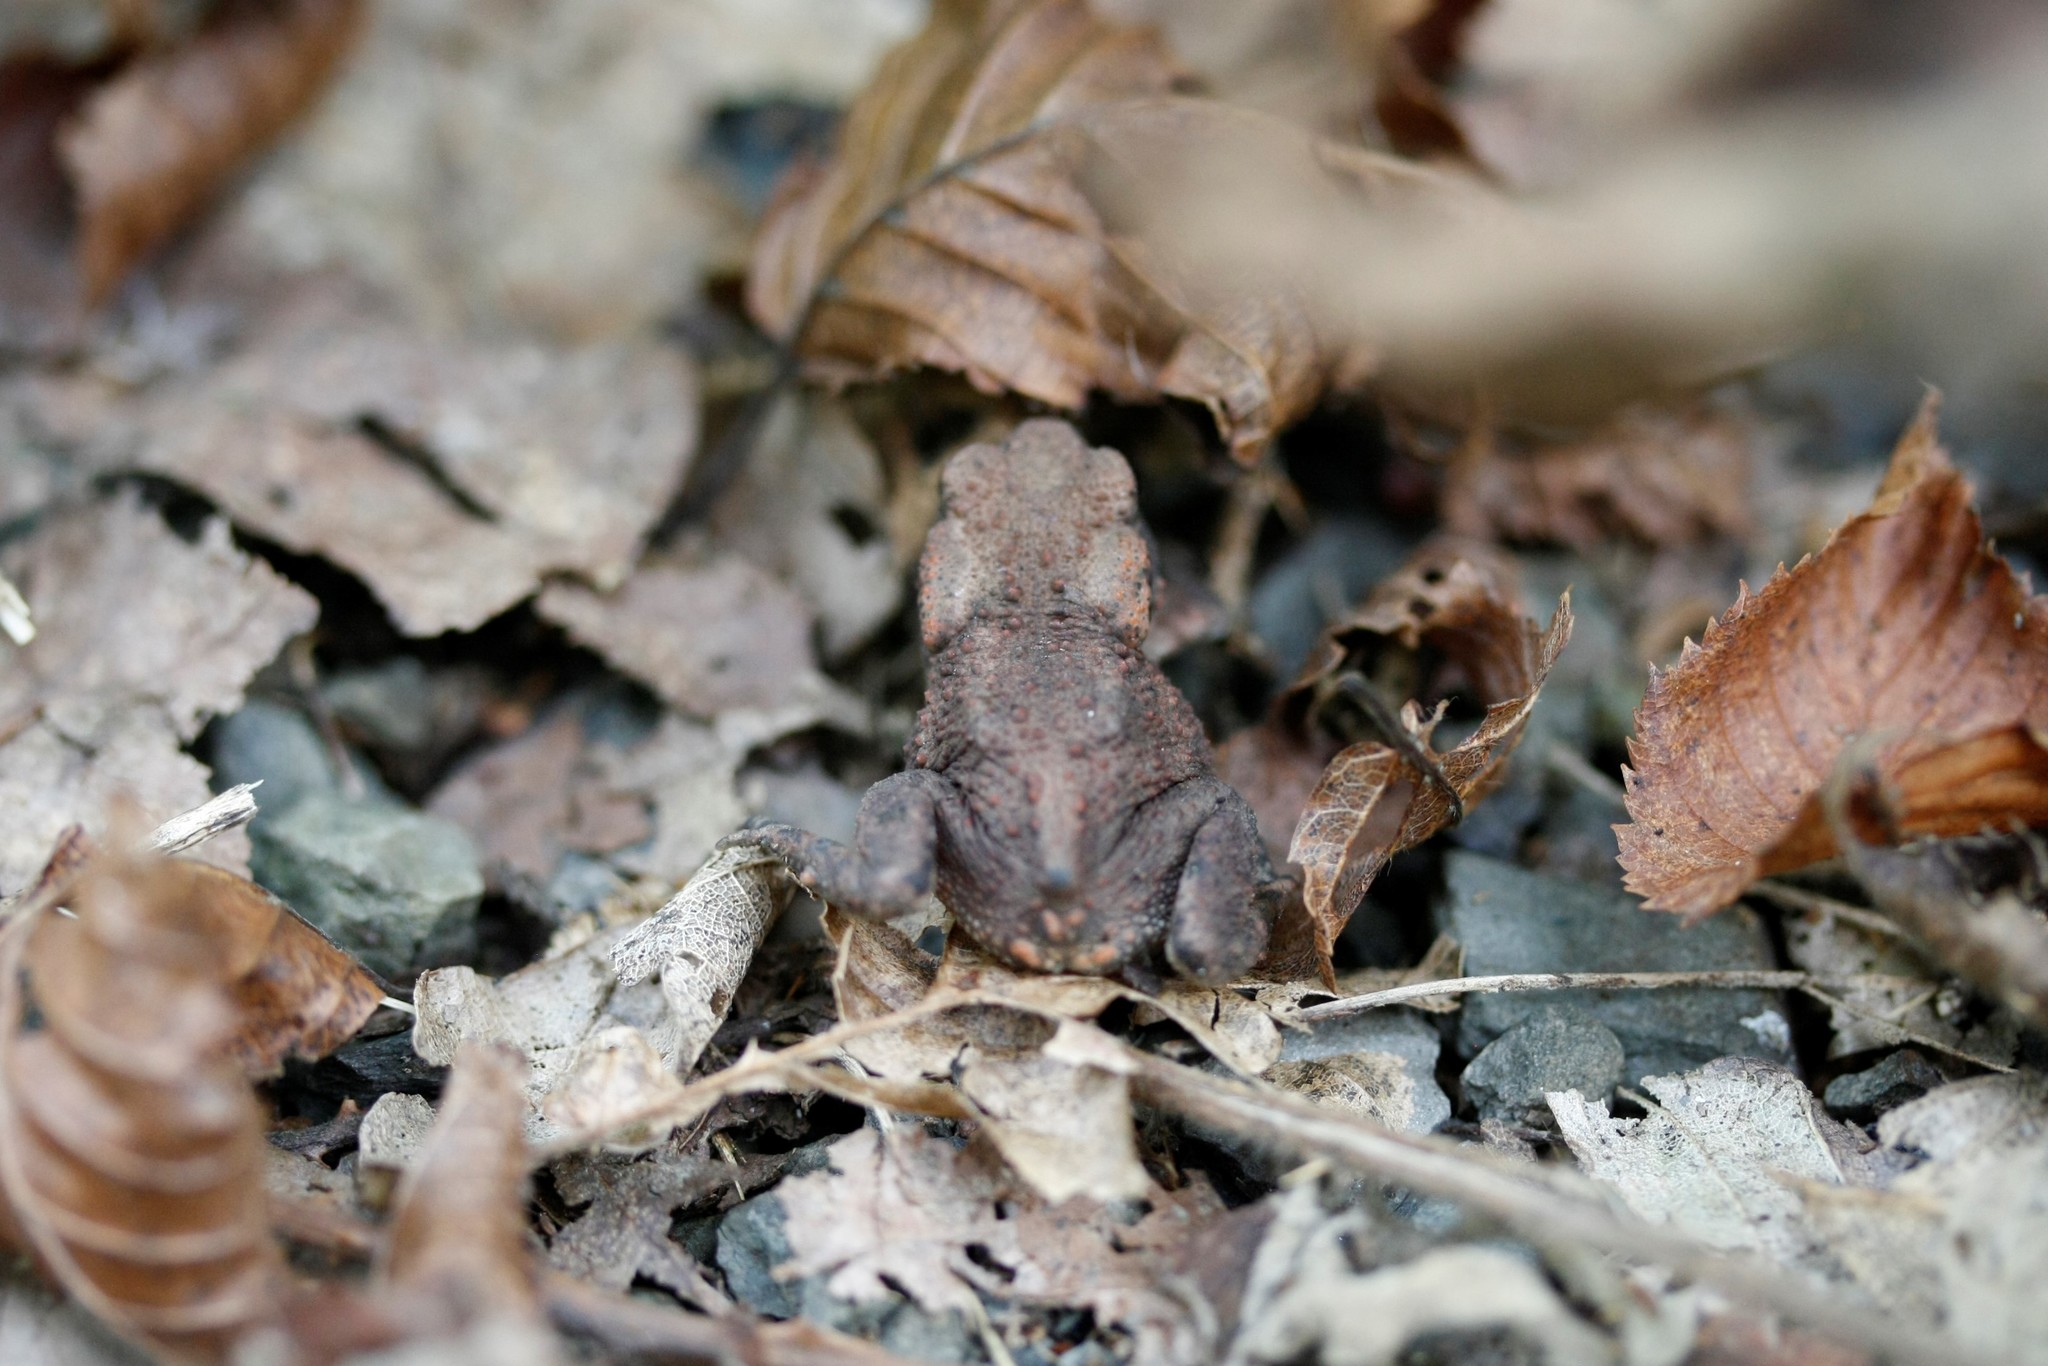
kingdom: Animalia
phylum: Chordata
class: Amphibia
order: Anura
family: Bufonidae
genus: Bufo
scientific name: Bufo bufo
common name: Common toad
